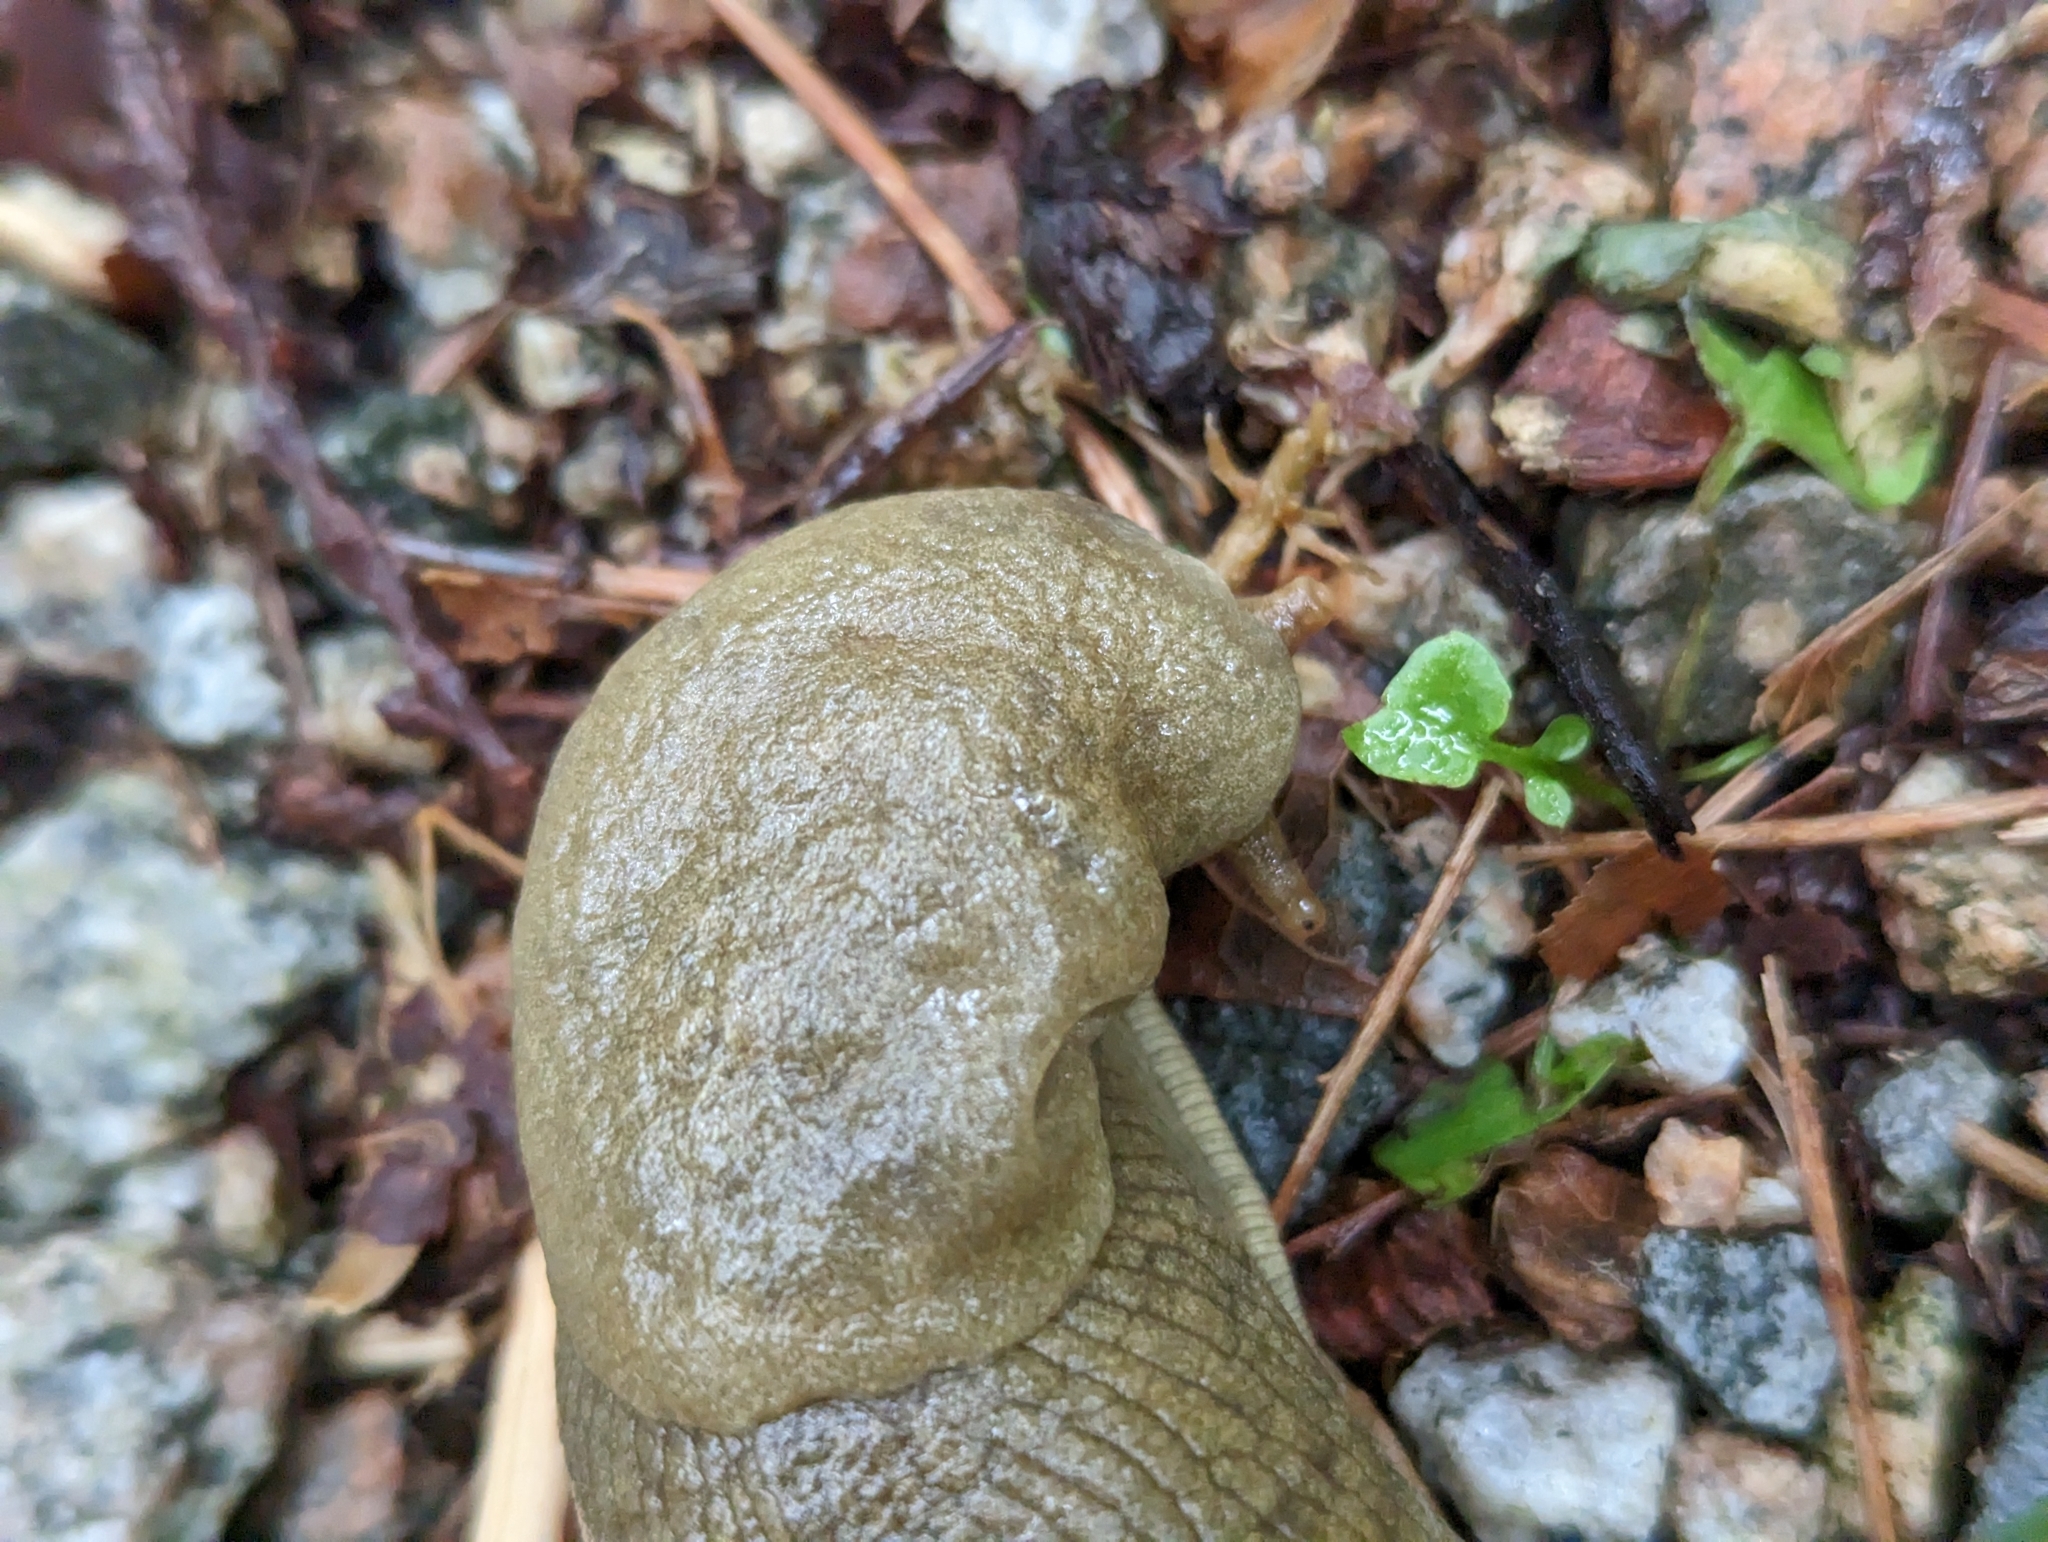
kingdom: Animalia
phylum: Mollusca
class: Gastropoda
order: Stylommatophora
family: Ariolimacidae
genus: Ariolimax
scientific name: Ariolimax columbianus
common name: Pacific banana slug
